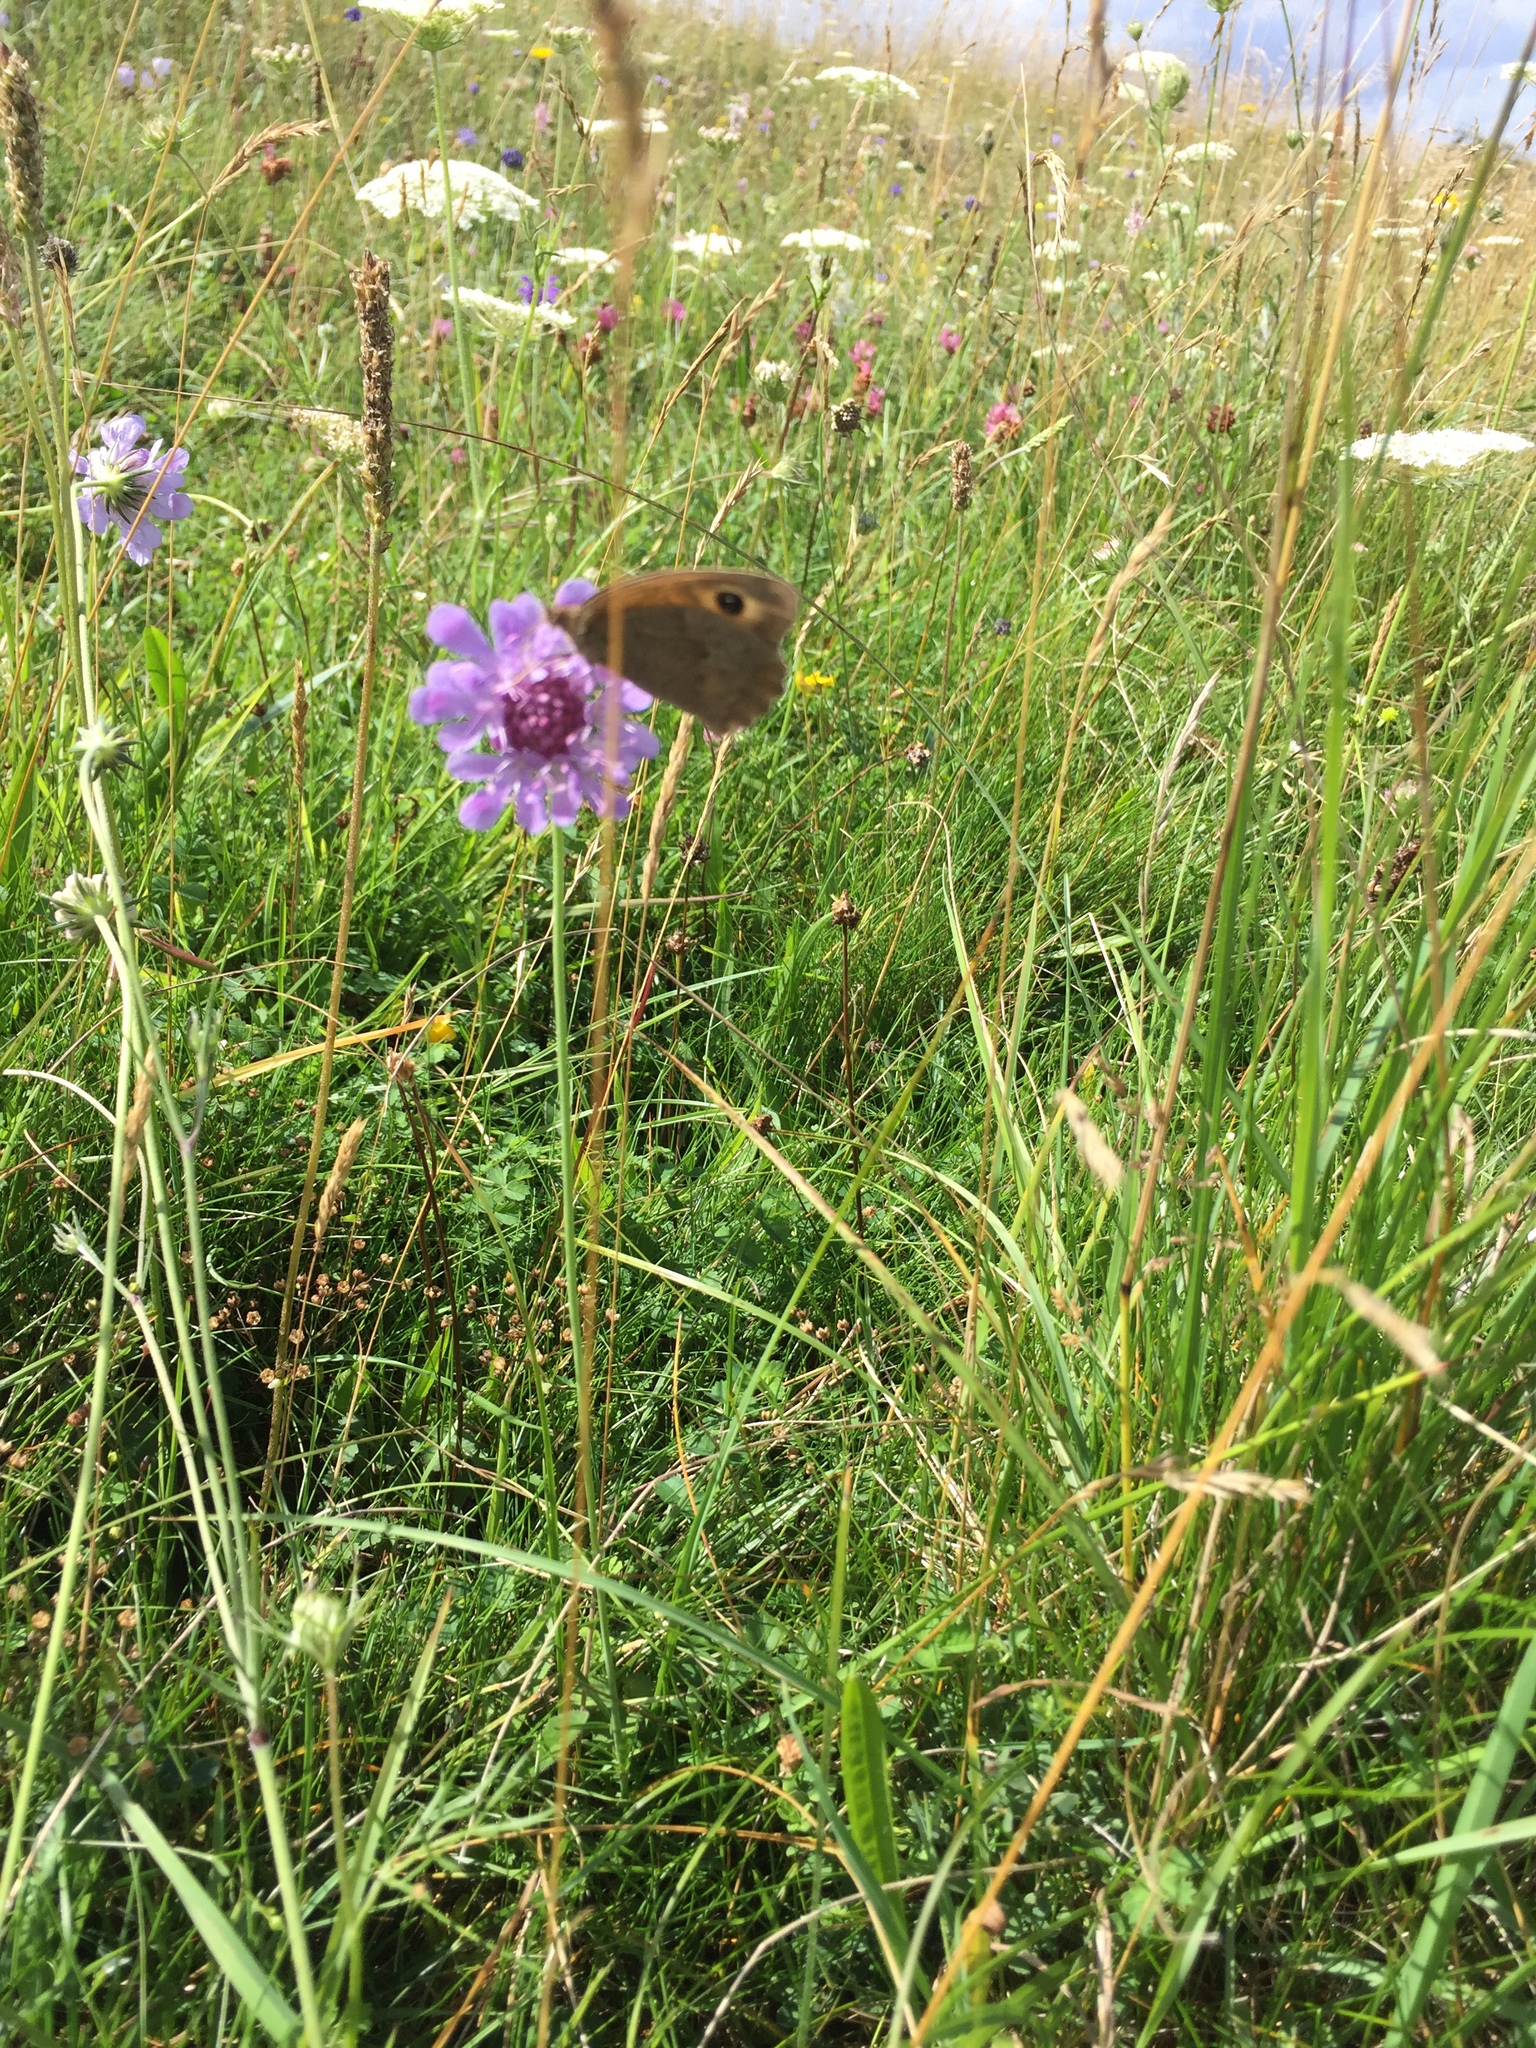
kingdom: Animalia
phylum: Arthropoda
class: Insecta
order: Lepidoptera
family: Nymphalidae
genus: Maniola
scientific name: Maniola jurtina
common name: Meadow brown
